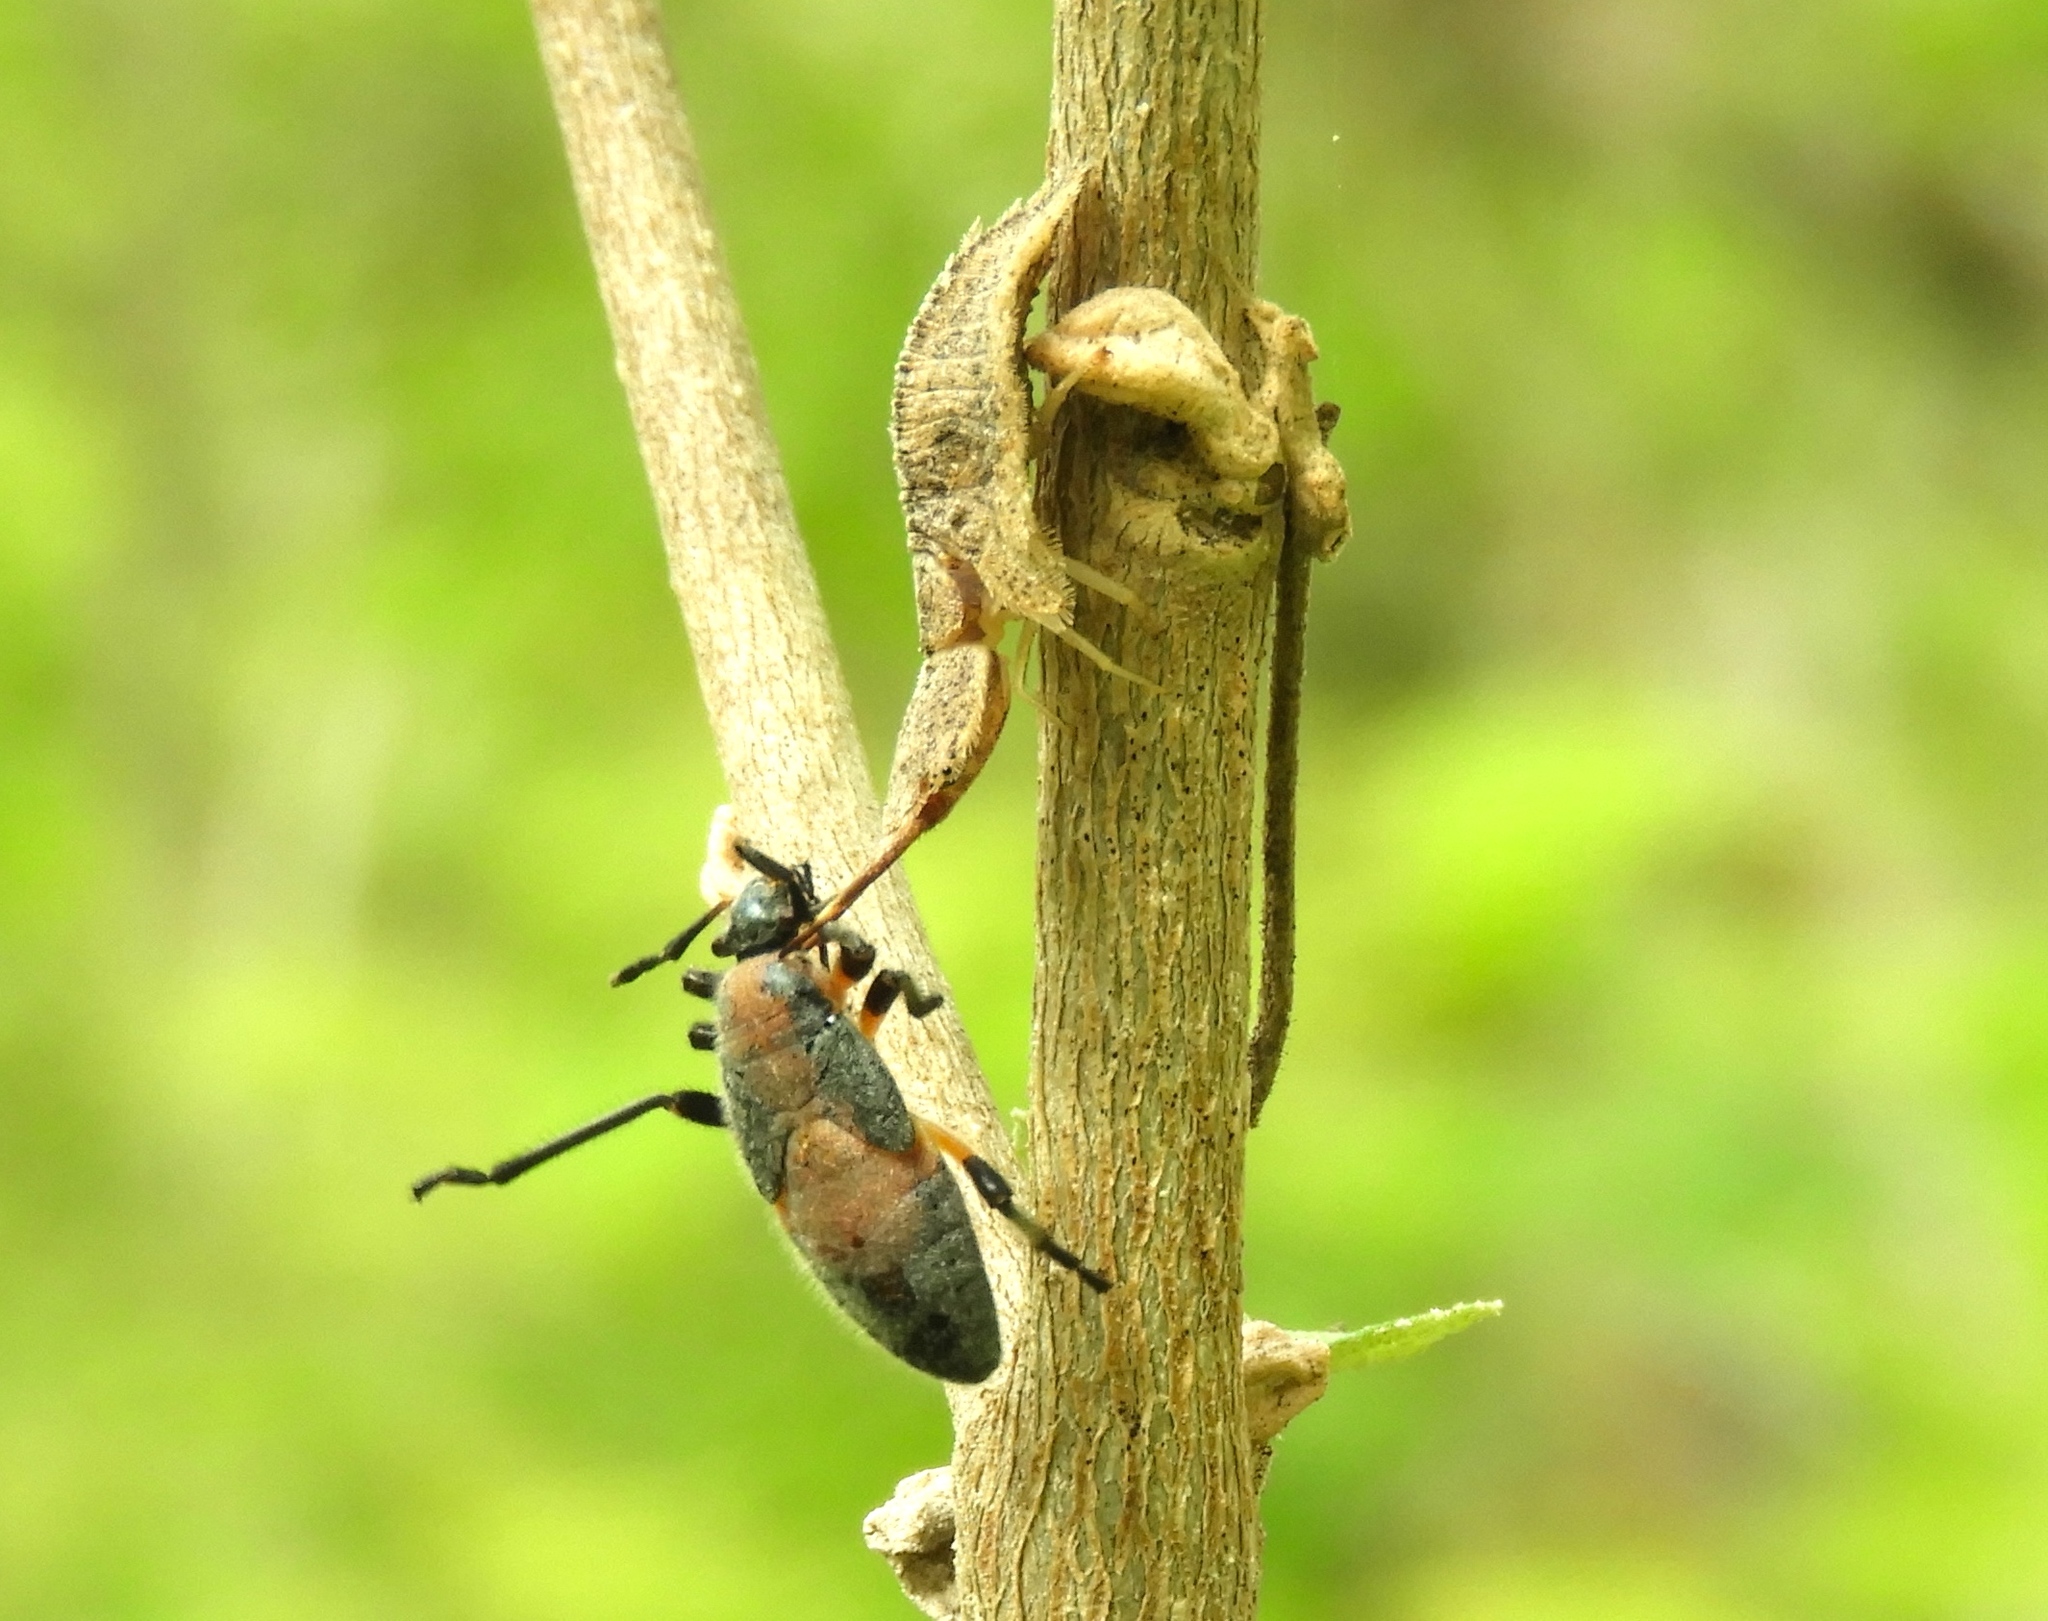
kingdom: Animalia
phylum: Arthropoda
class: Insecta
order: Neuroptera
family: Ascalaphidae
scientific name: Ascalaphidae
